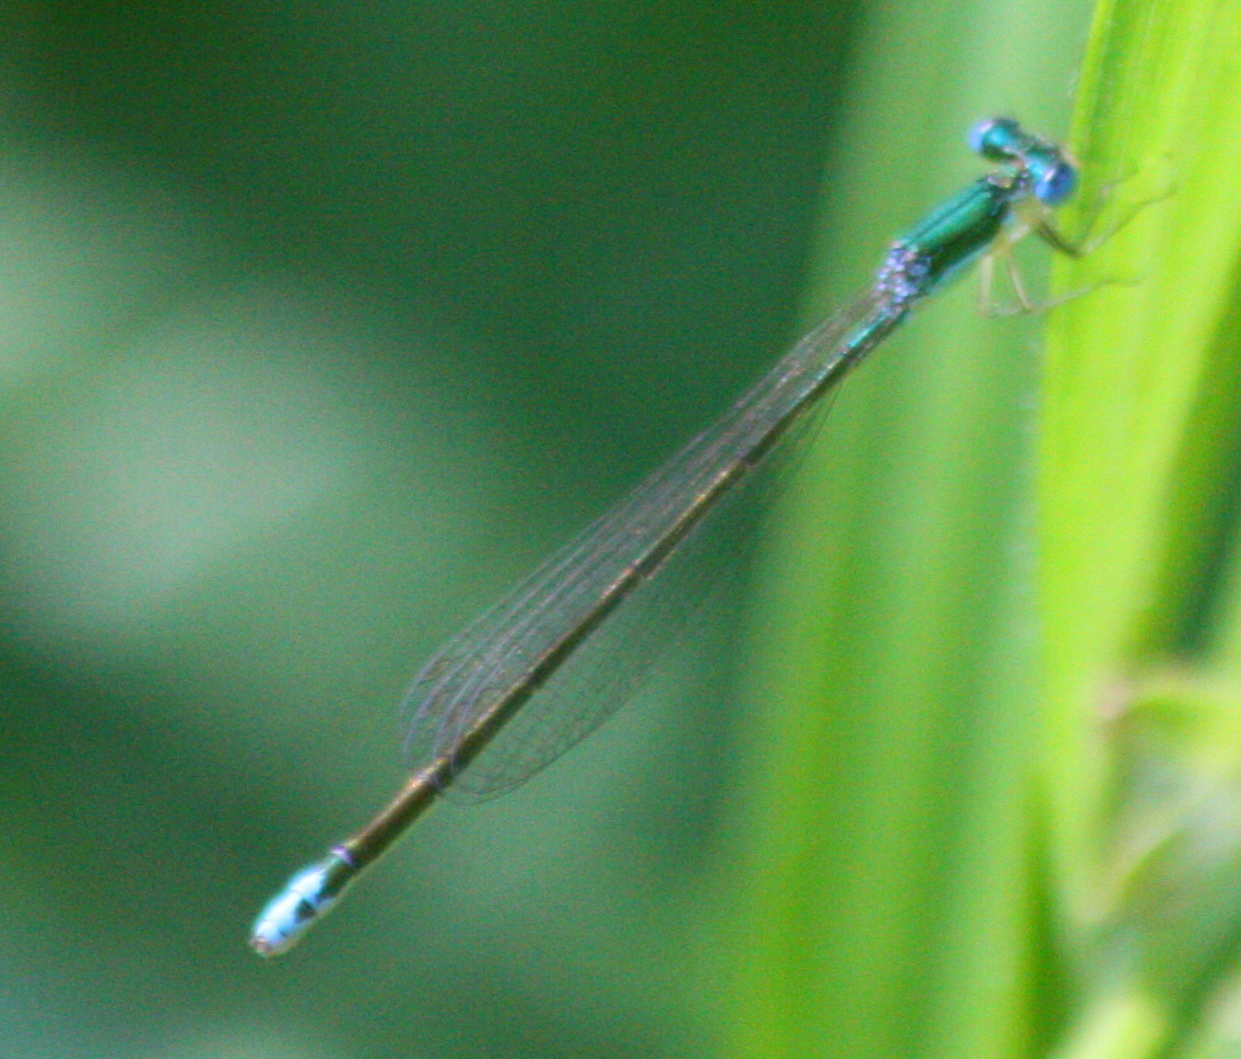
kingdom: Animalia
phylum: Arthropoda
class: Insecta
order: Odonata
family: Coenagrionidae
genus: Nehalennia
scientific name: Nehalennia irene
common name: Sedge sprite
